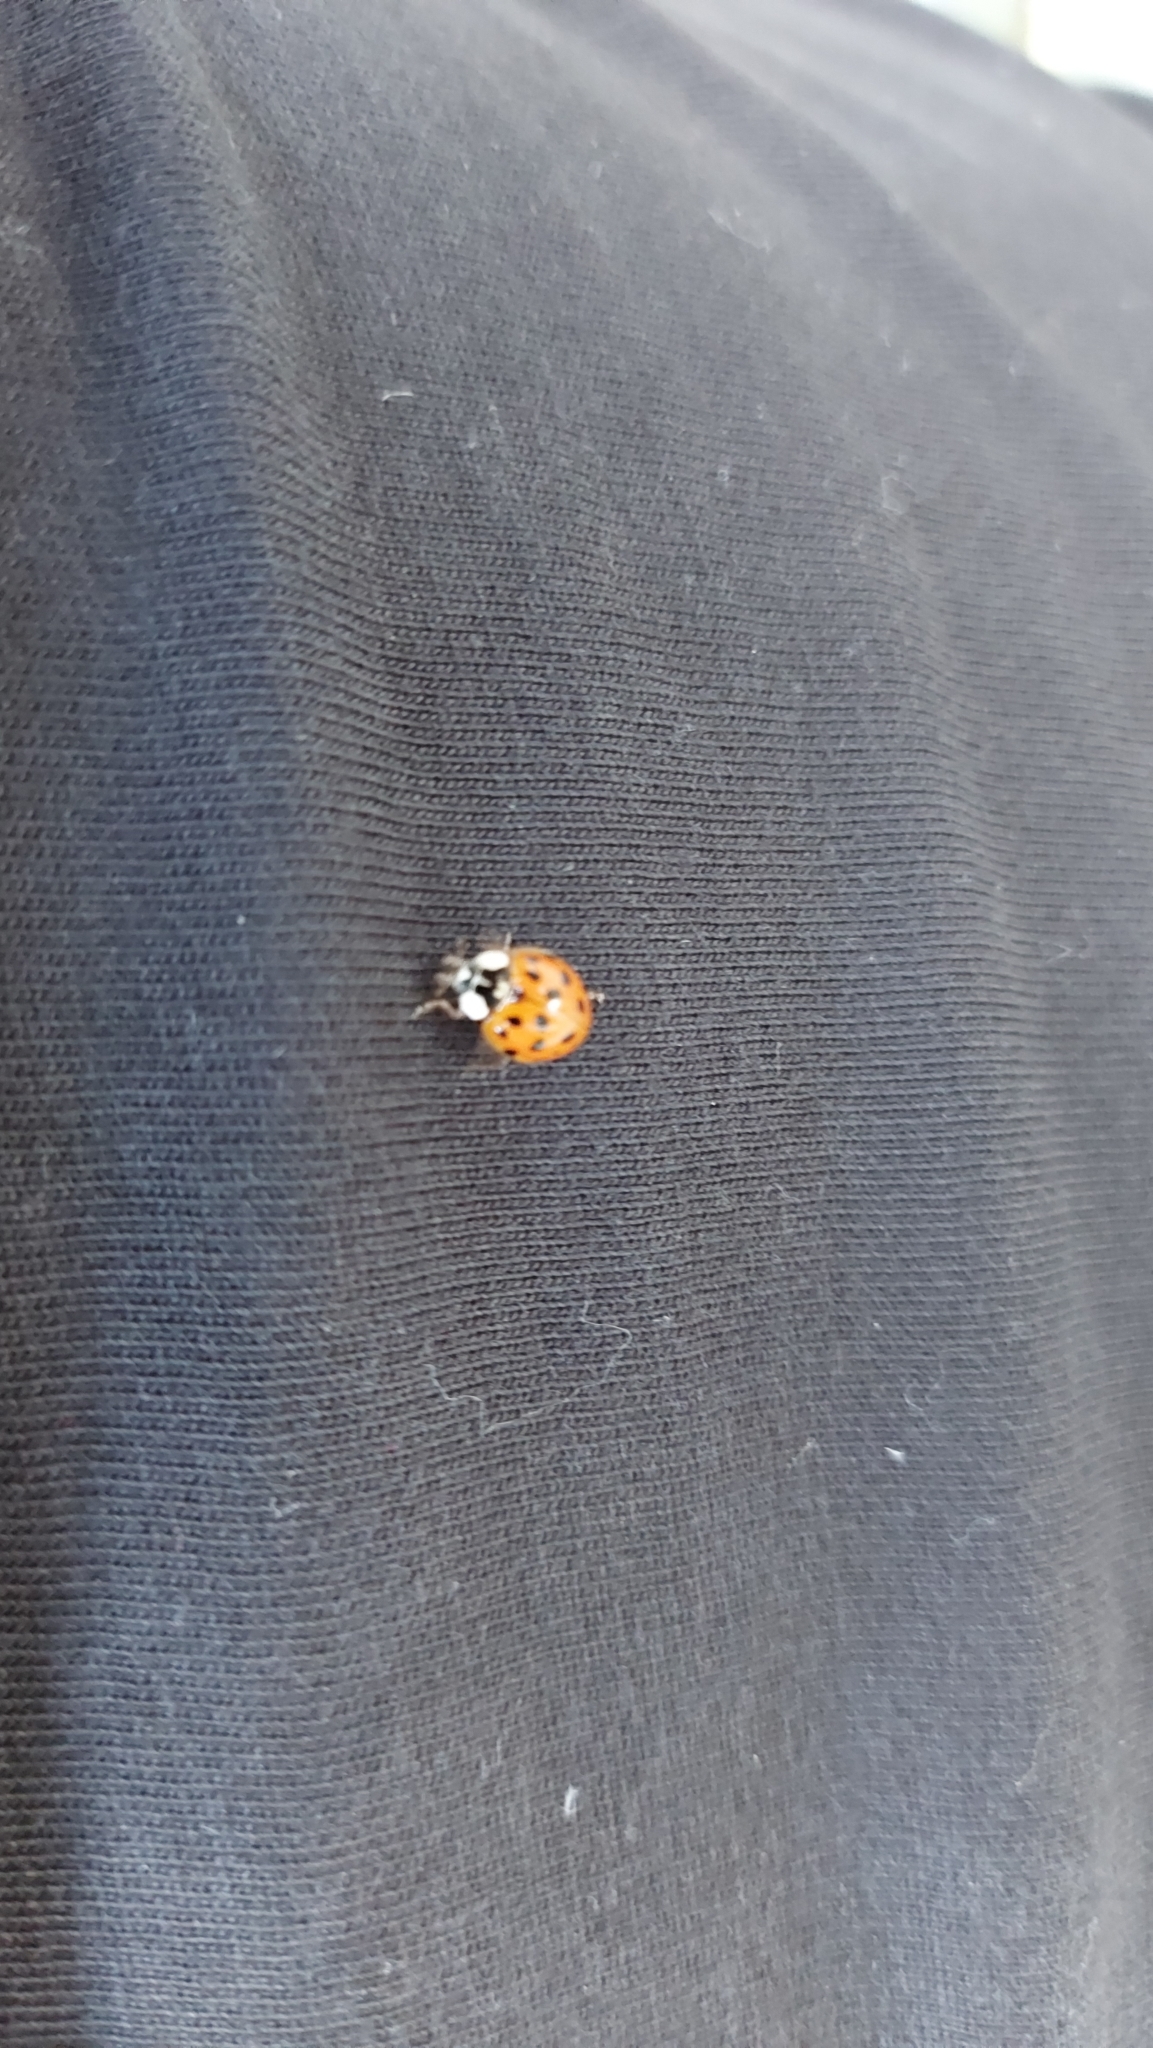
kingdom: Animalia
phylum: Arthropoda
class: Insecta
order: Coleoptera
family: Coccinellidae
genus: Harmonia
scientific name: Harmonia axyridis
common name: Harlequin ladybird
